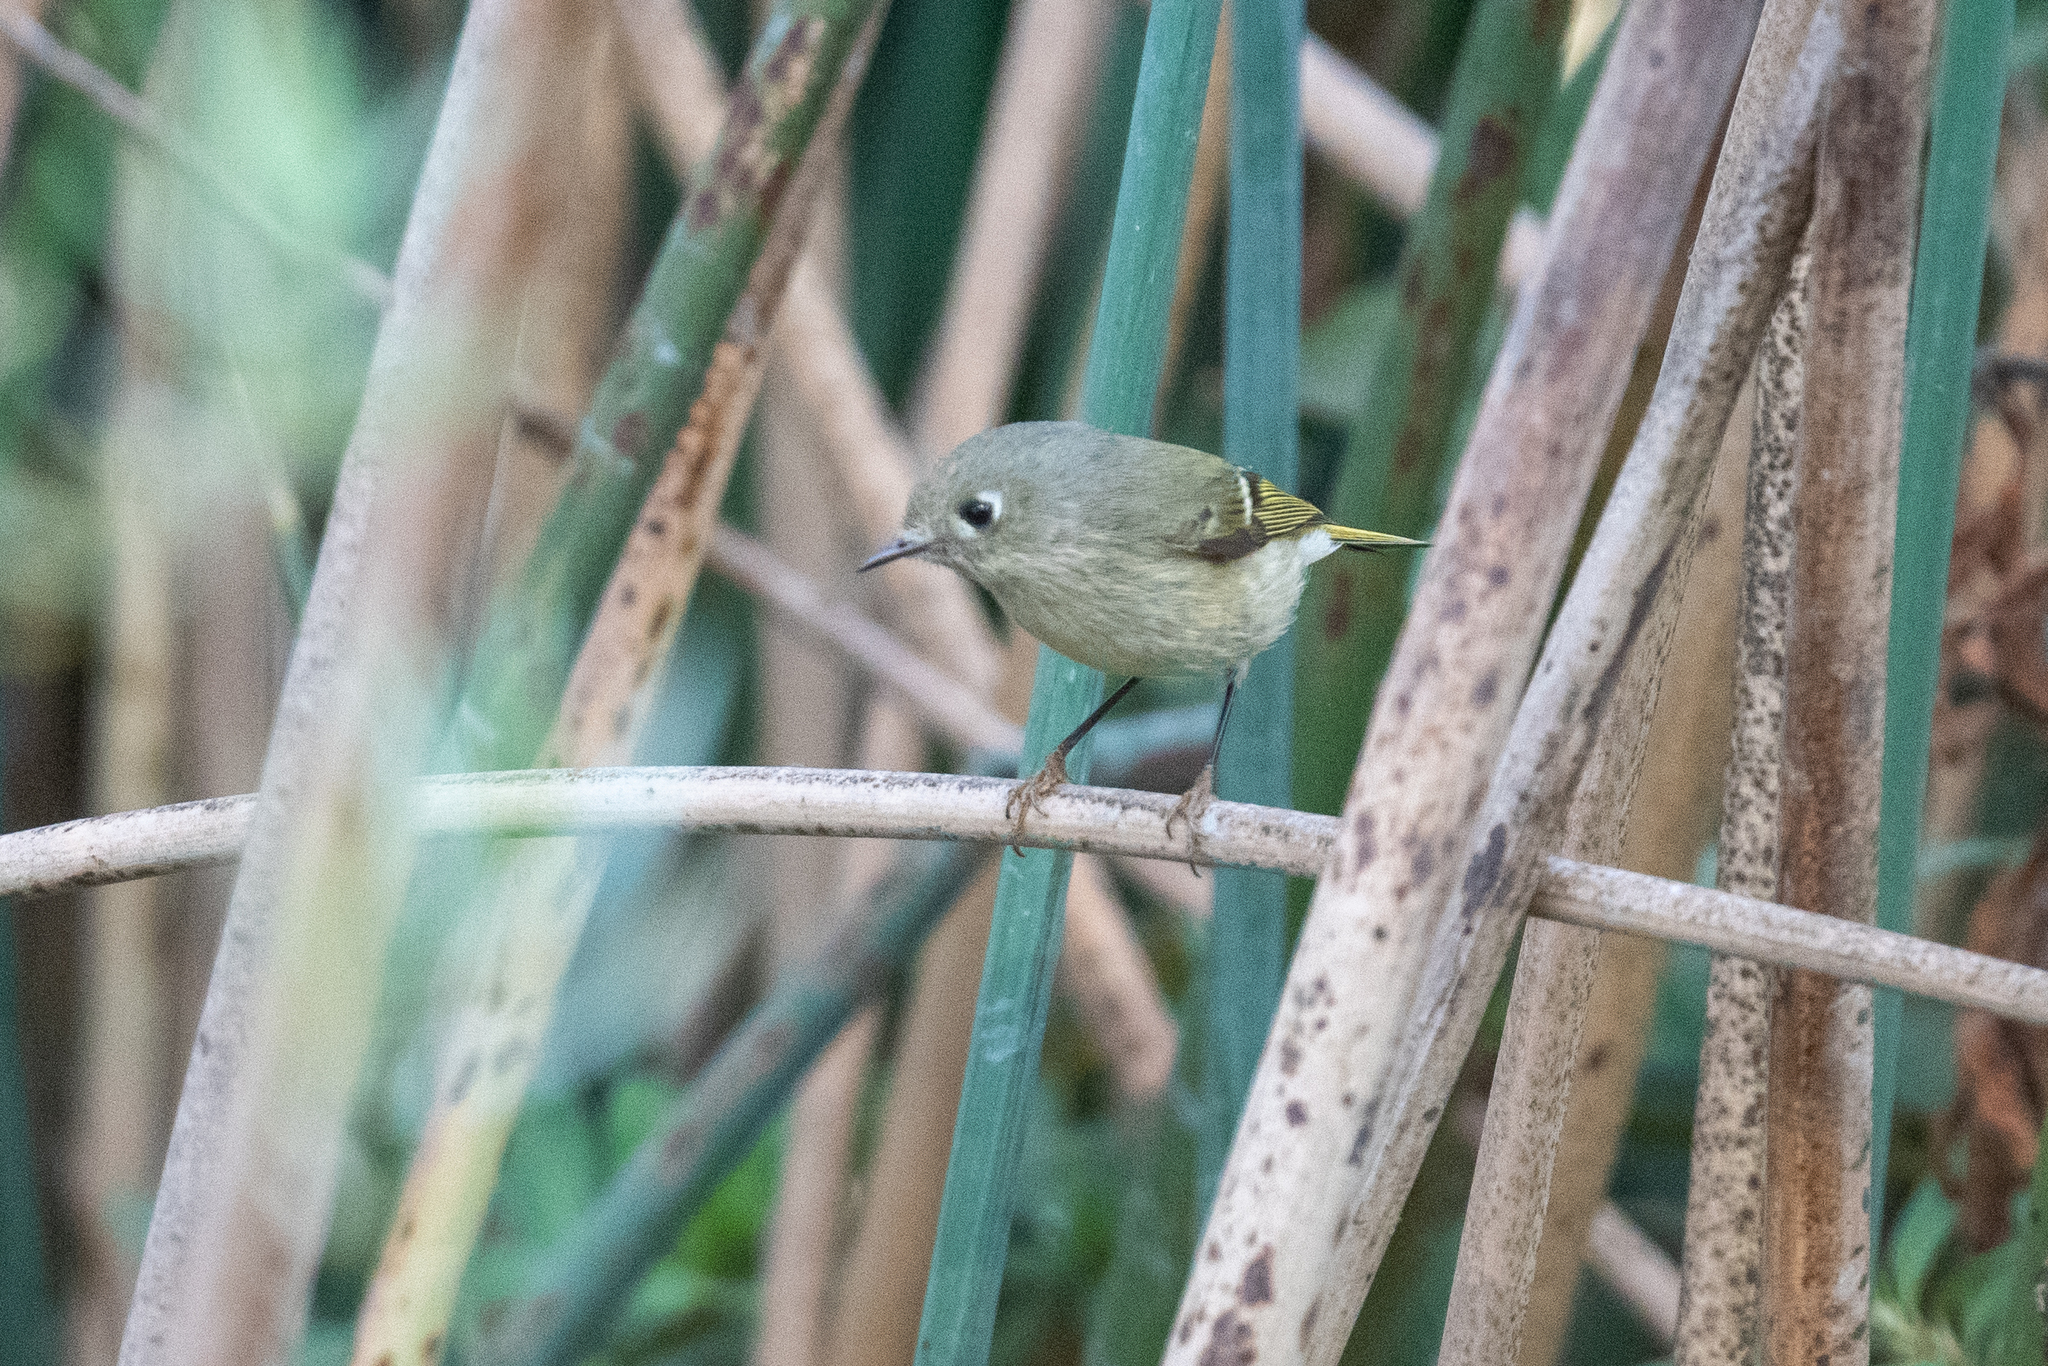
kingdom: Animalia
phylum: Chordata
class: Aves
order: Passeriformes
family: Regulidae
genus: Regulus
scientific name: Regulus calendula
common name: Ruby-crowned kinglet
